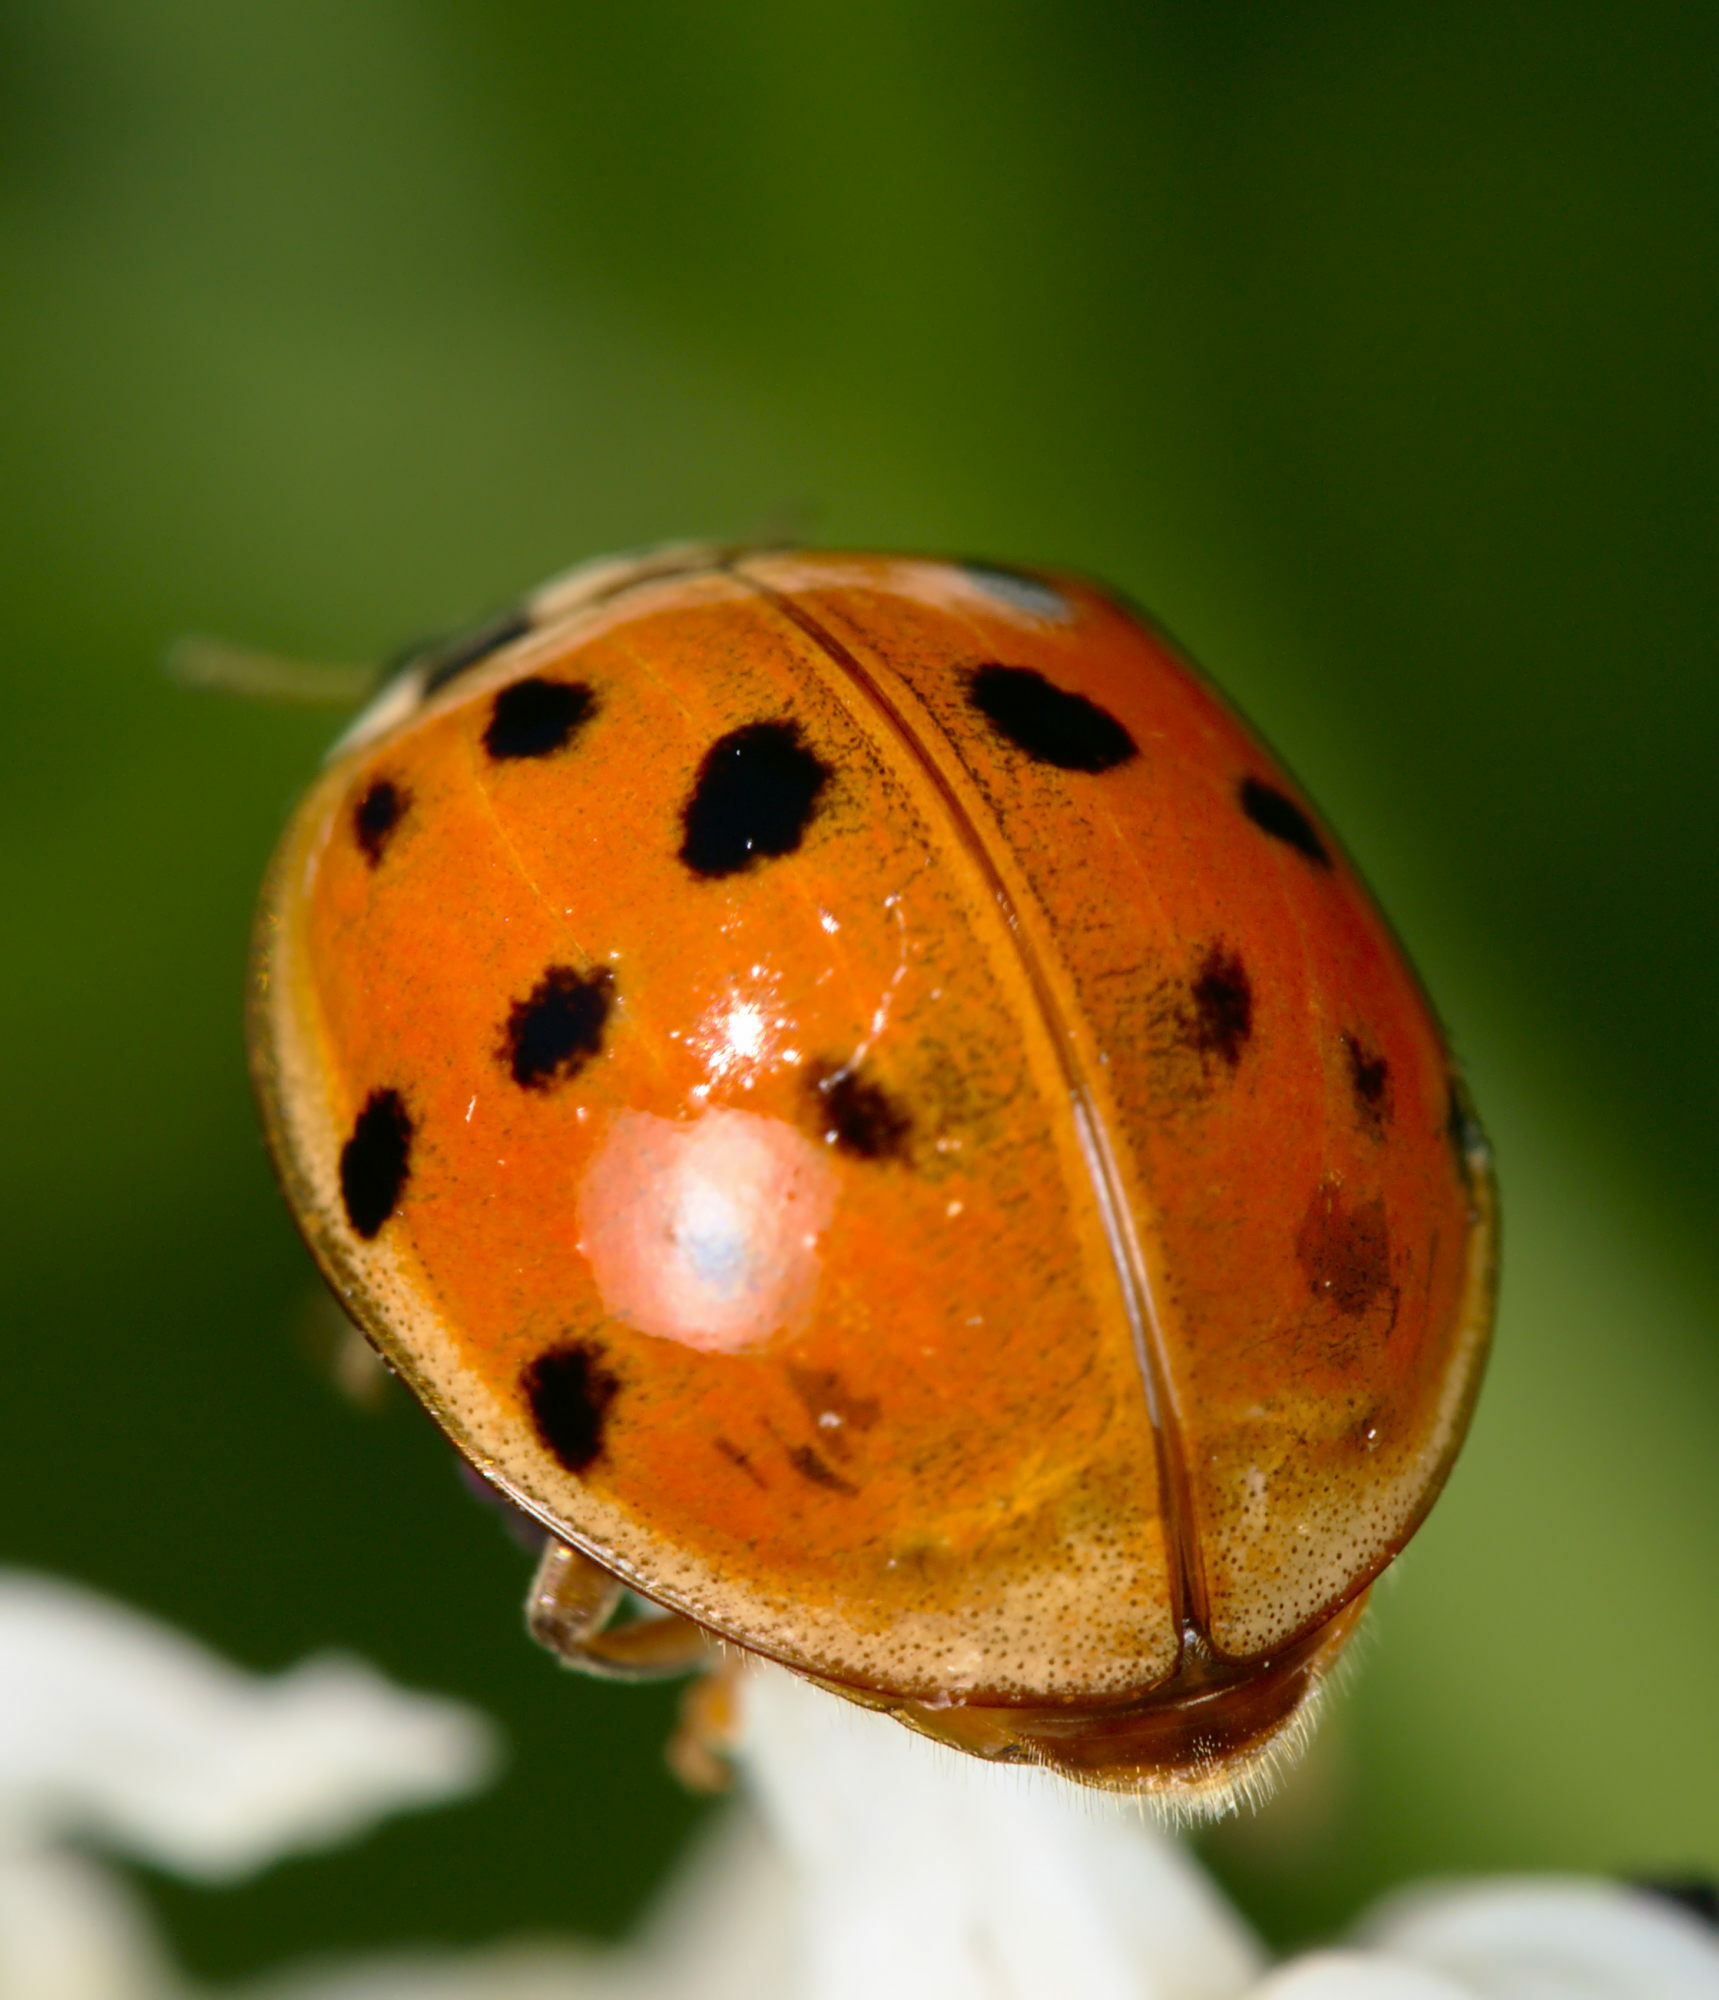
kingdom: Animalia
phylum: Arthropoda
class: Insecta
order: Coleoptera
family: Coccinellidae
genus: Harmonia
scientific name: Harmonia axyridis
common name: Harlequin ladybird
